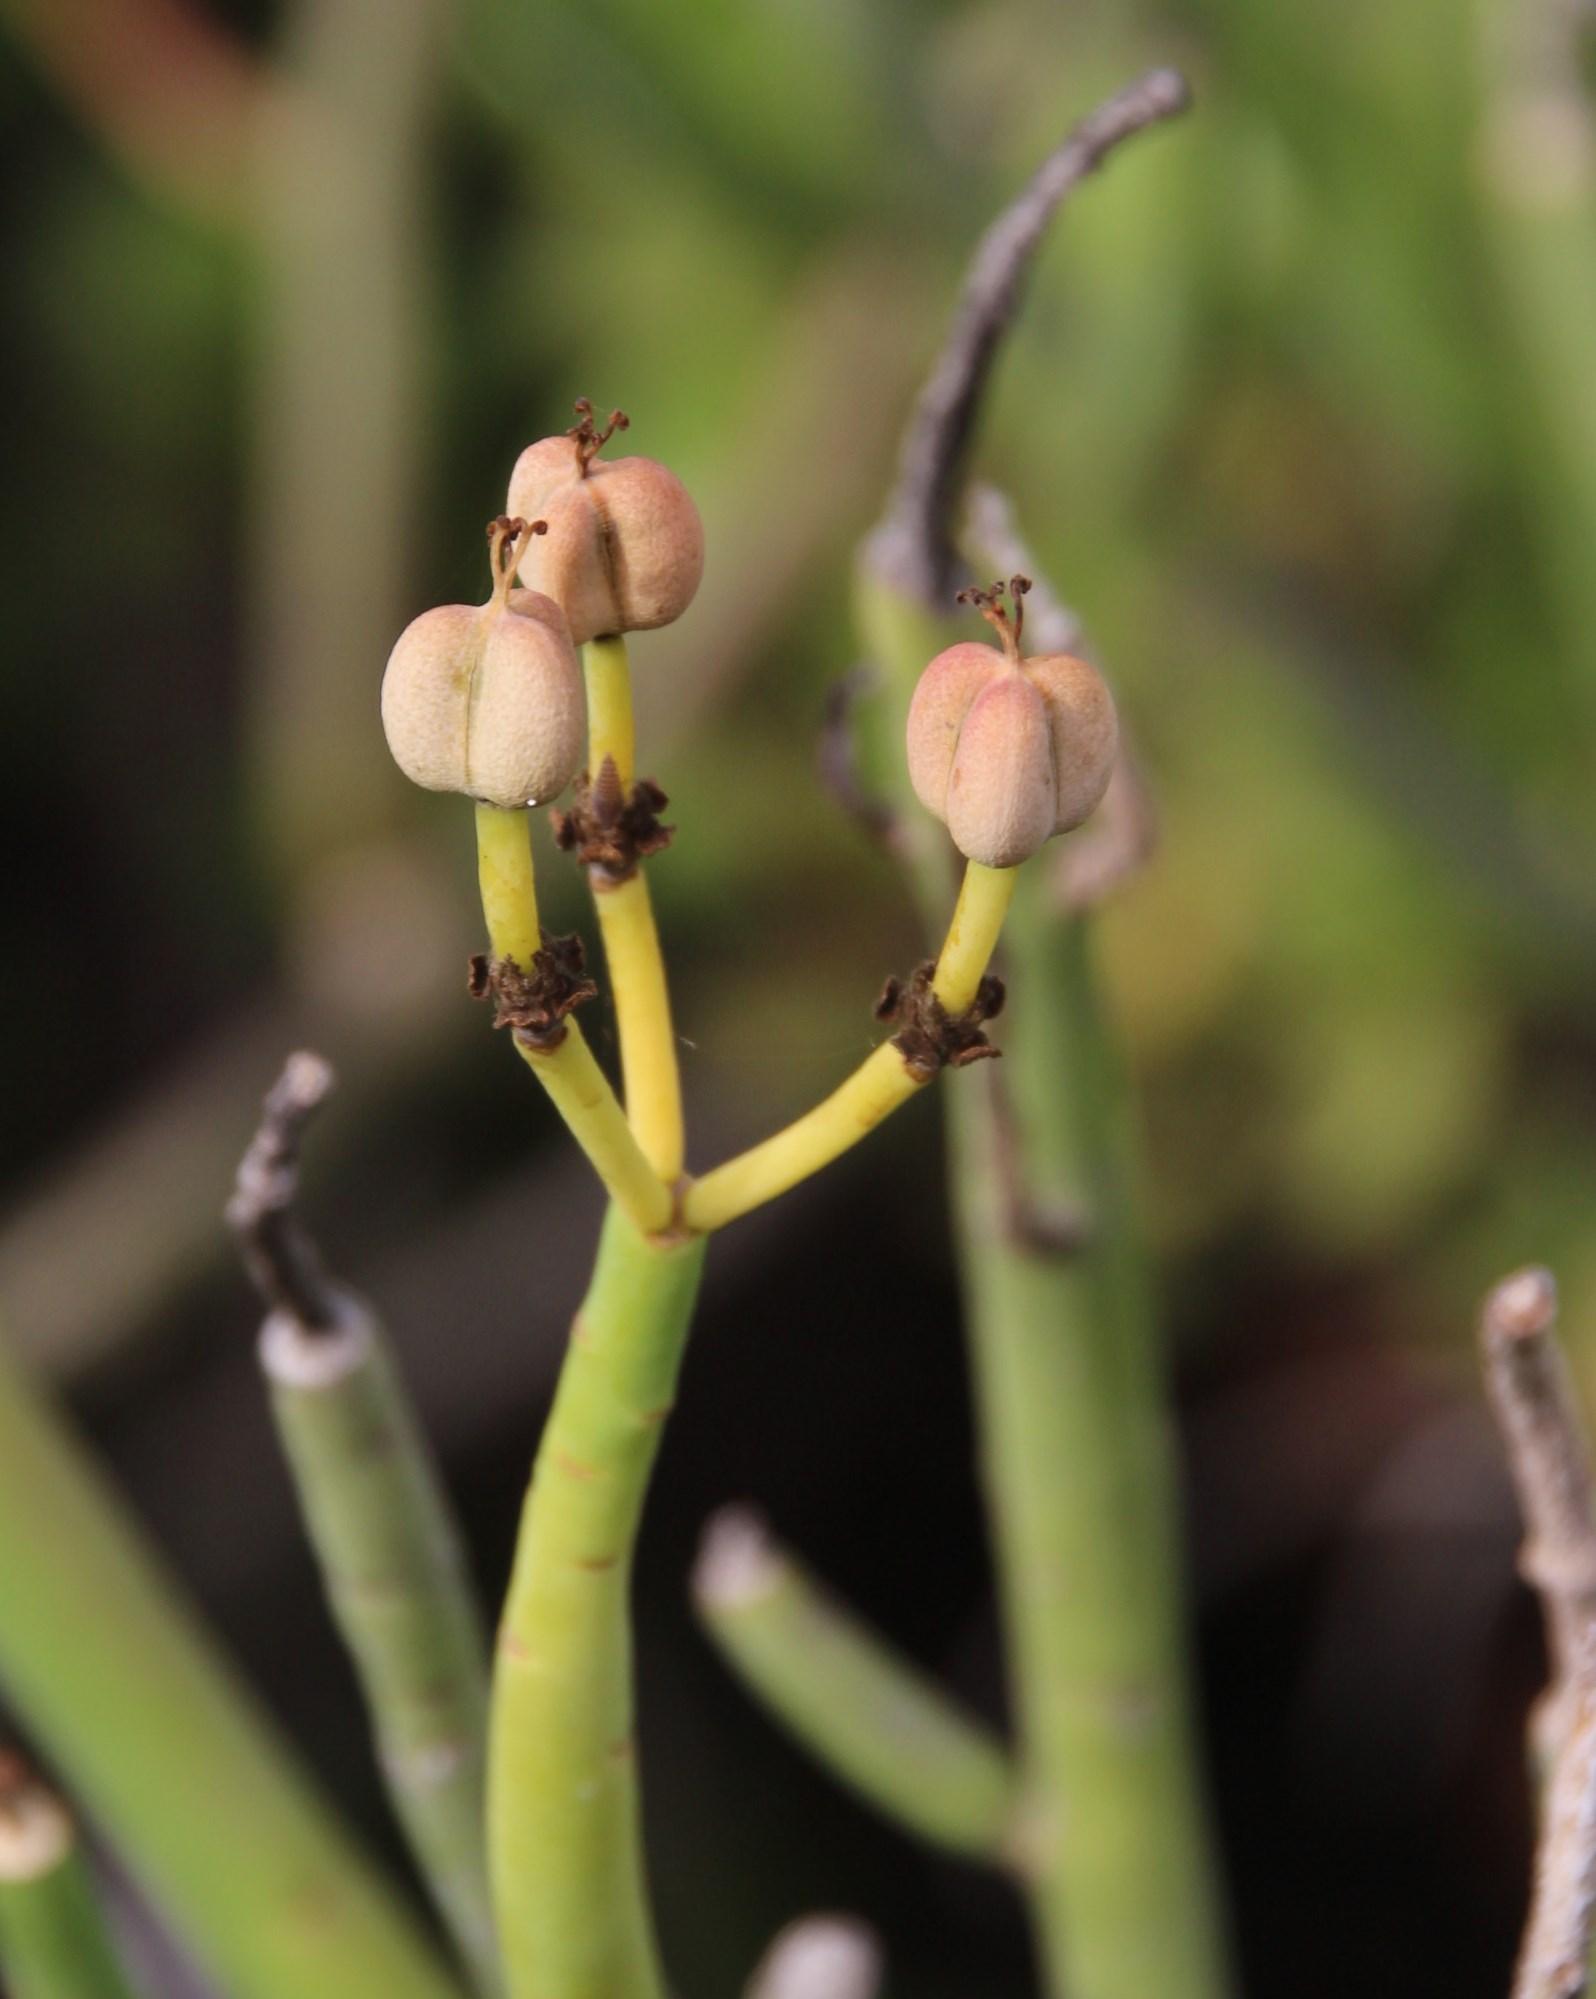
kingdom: Plantae
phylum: Tracheophyta
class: Magnoliopsida
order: Malpighiales
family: Euphorbiaceae
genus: Euphorbia
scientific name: Euphorbia mauritanica
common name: Jackal's-food
